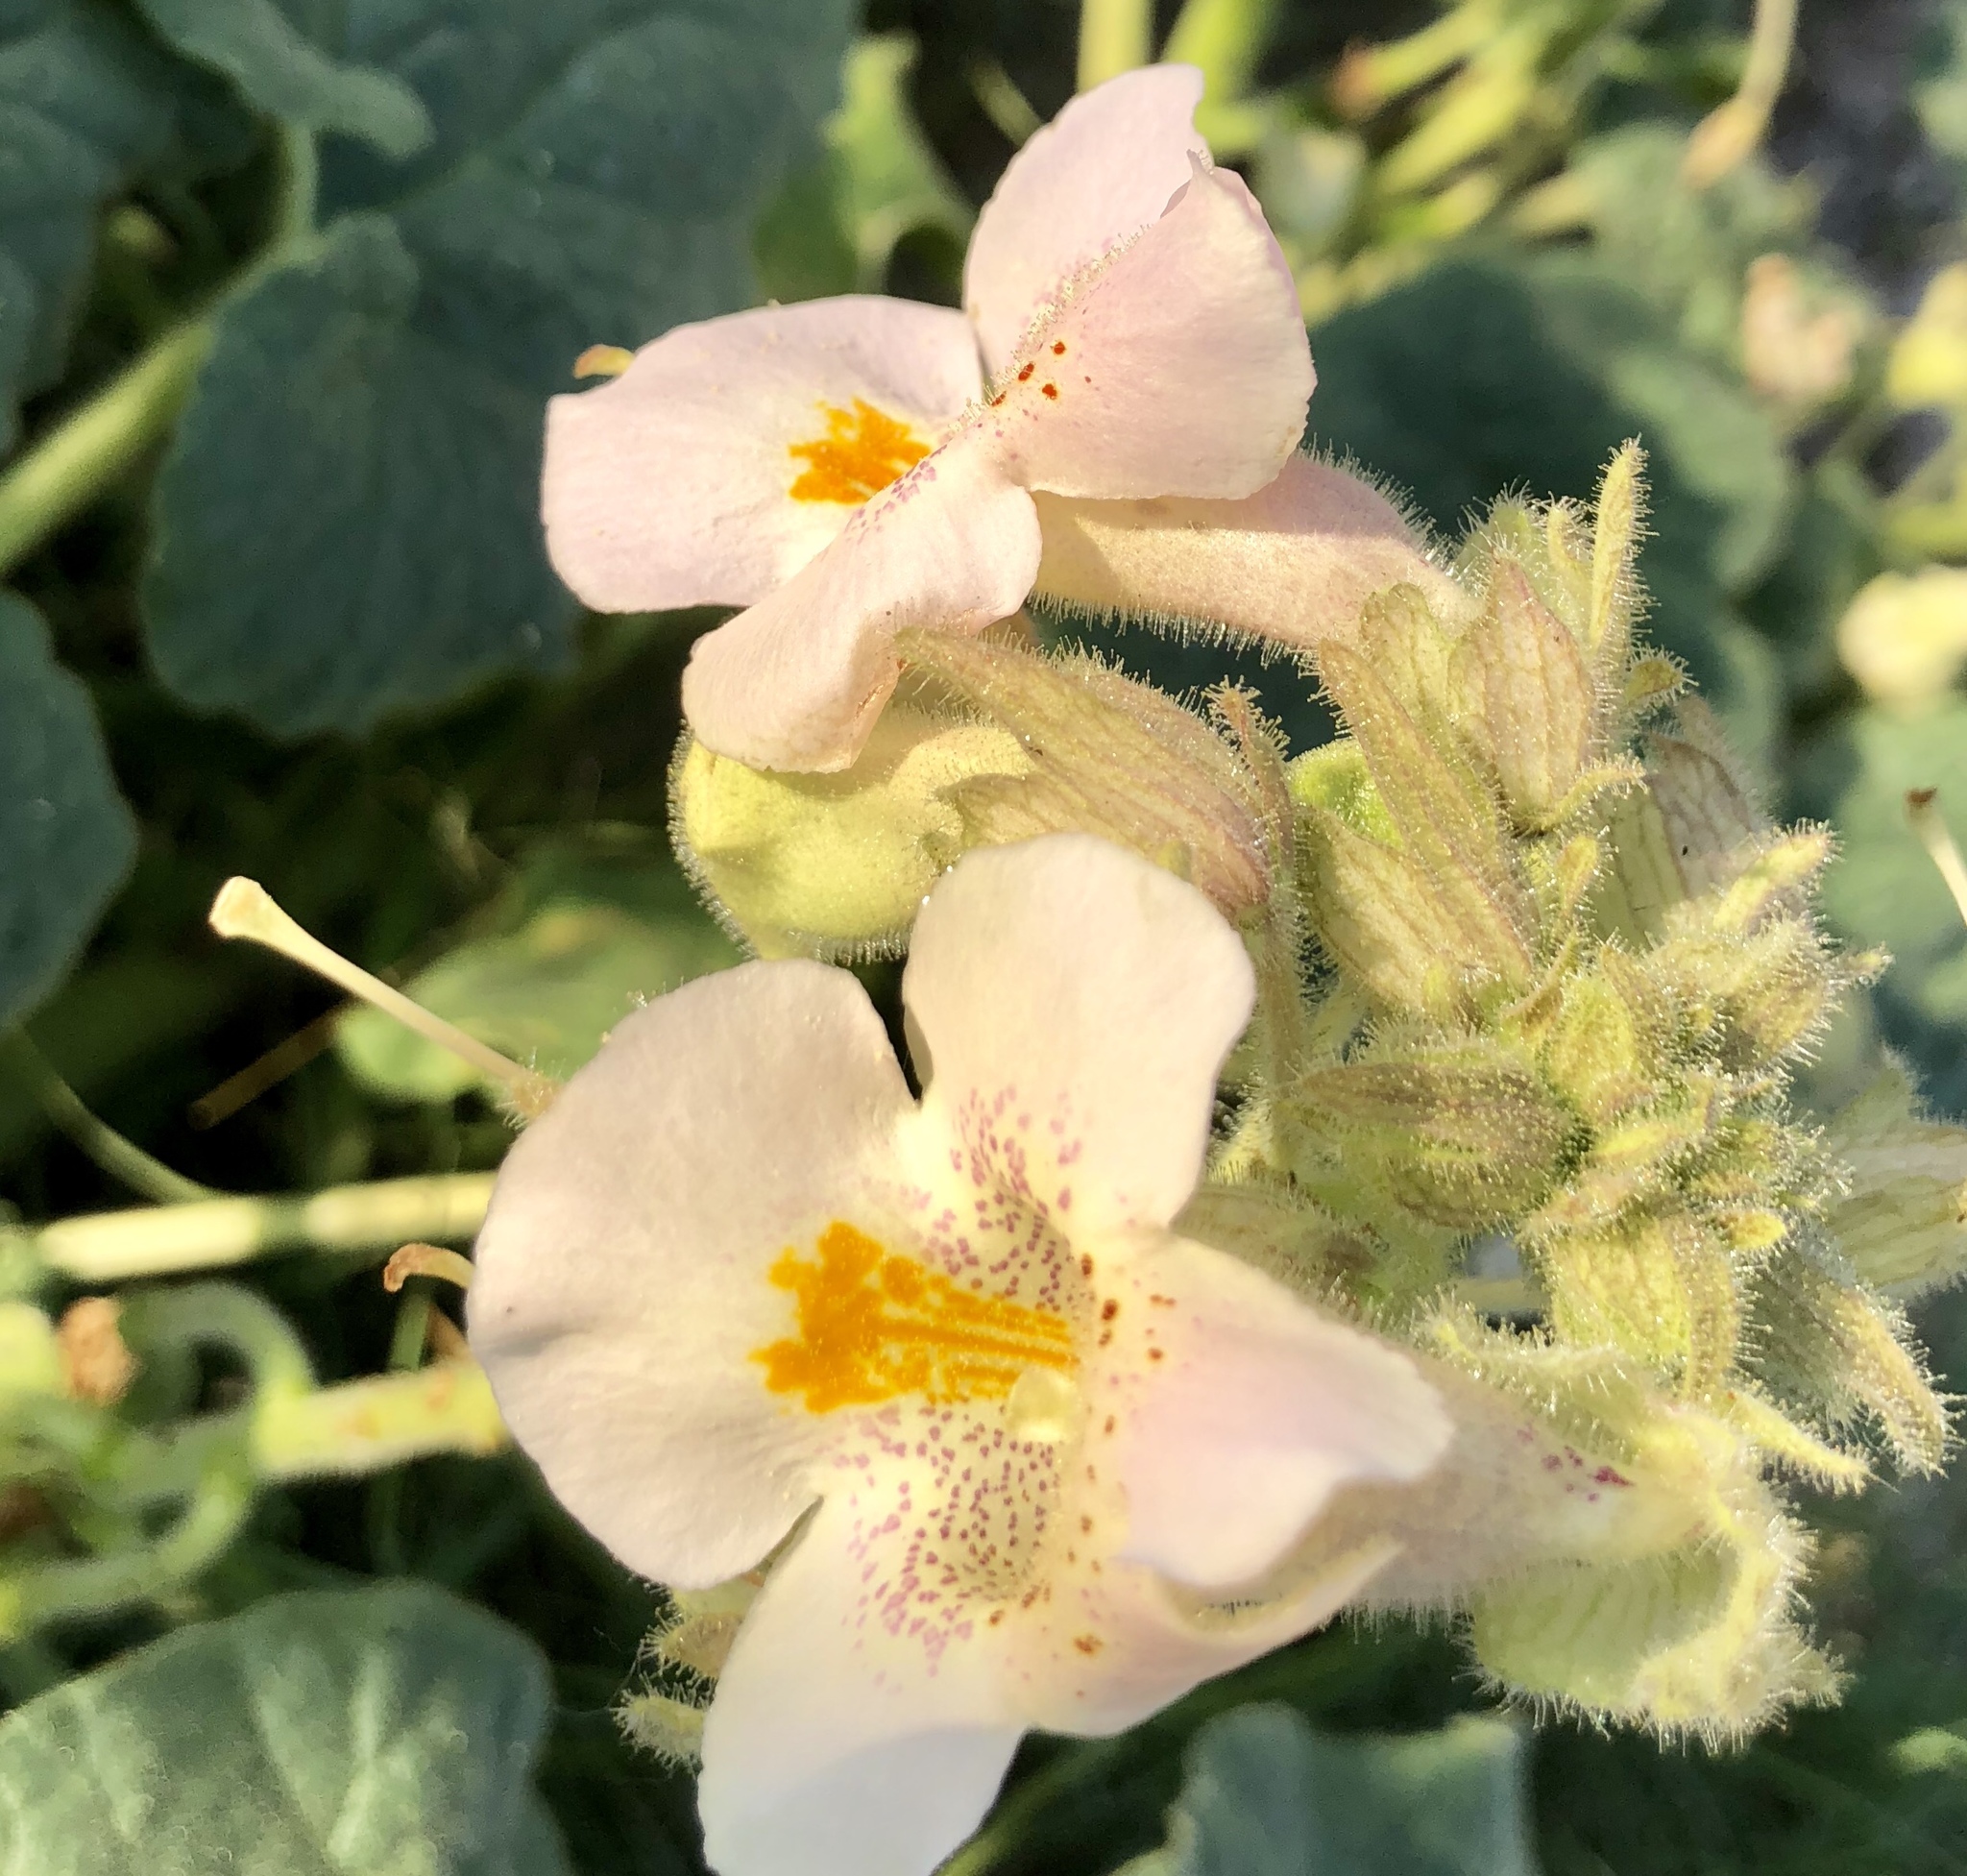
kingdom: Plantae
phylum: Tracheophyta
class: Magnoliopsida
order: Lamiales
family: Martyniaceae
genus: Proboscidea
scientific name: Proboscidea louisianica
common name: Elephant tusks
